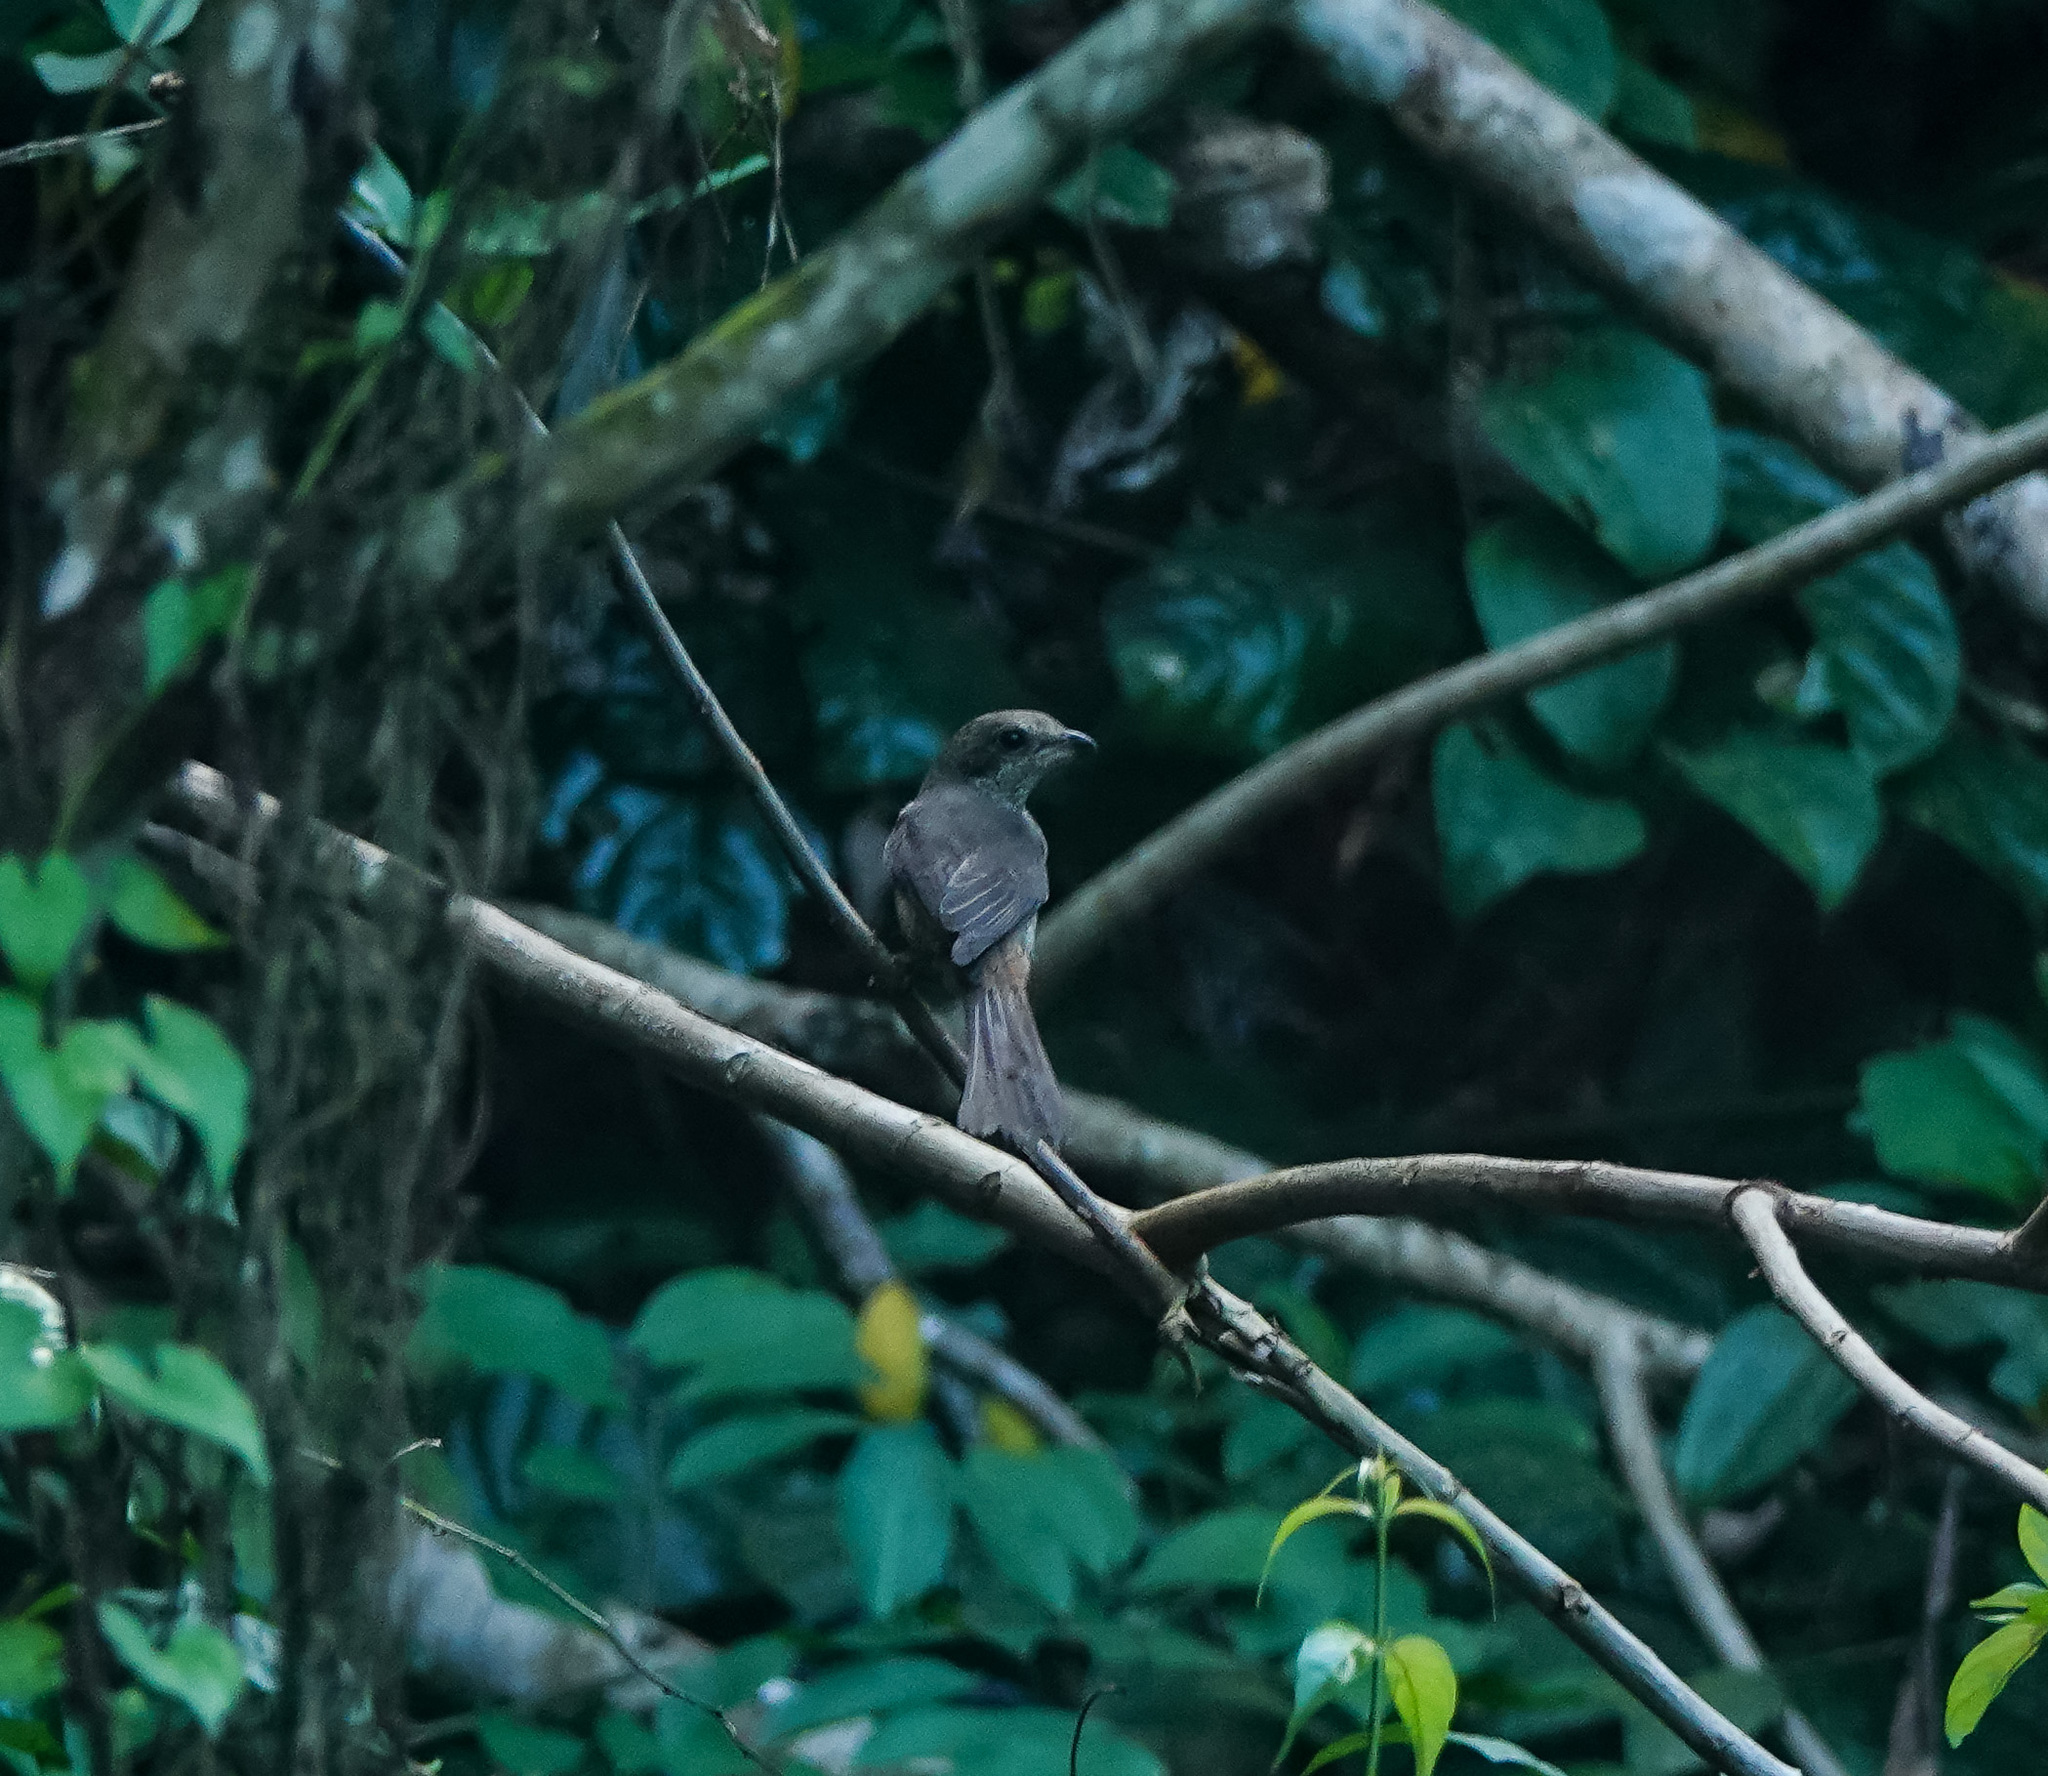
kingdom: Animalia
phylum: Chordata
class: Aves
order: Passeriformes
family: Laniidae
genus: Lanius
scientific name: Lanius cristatus
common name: Brown shrike
